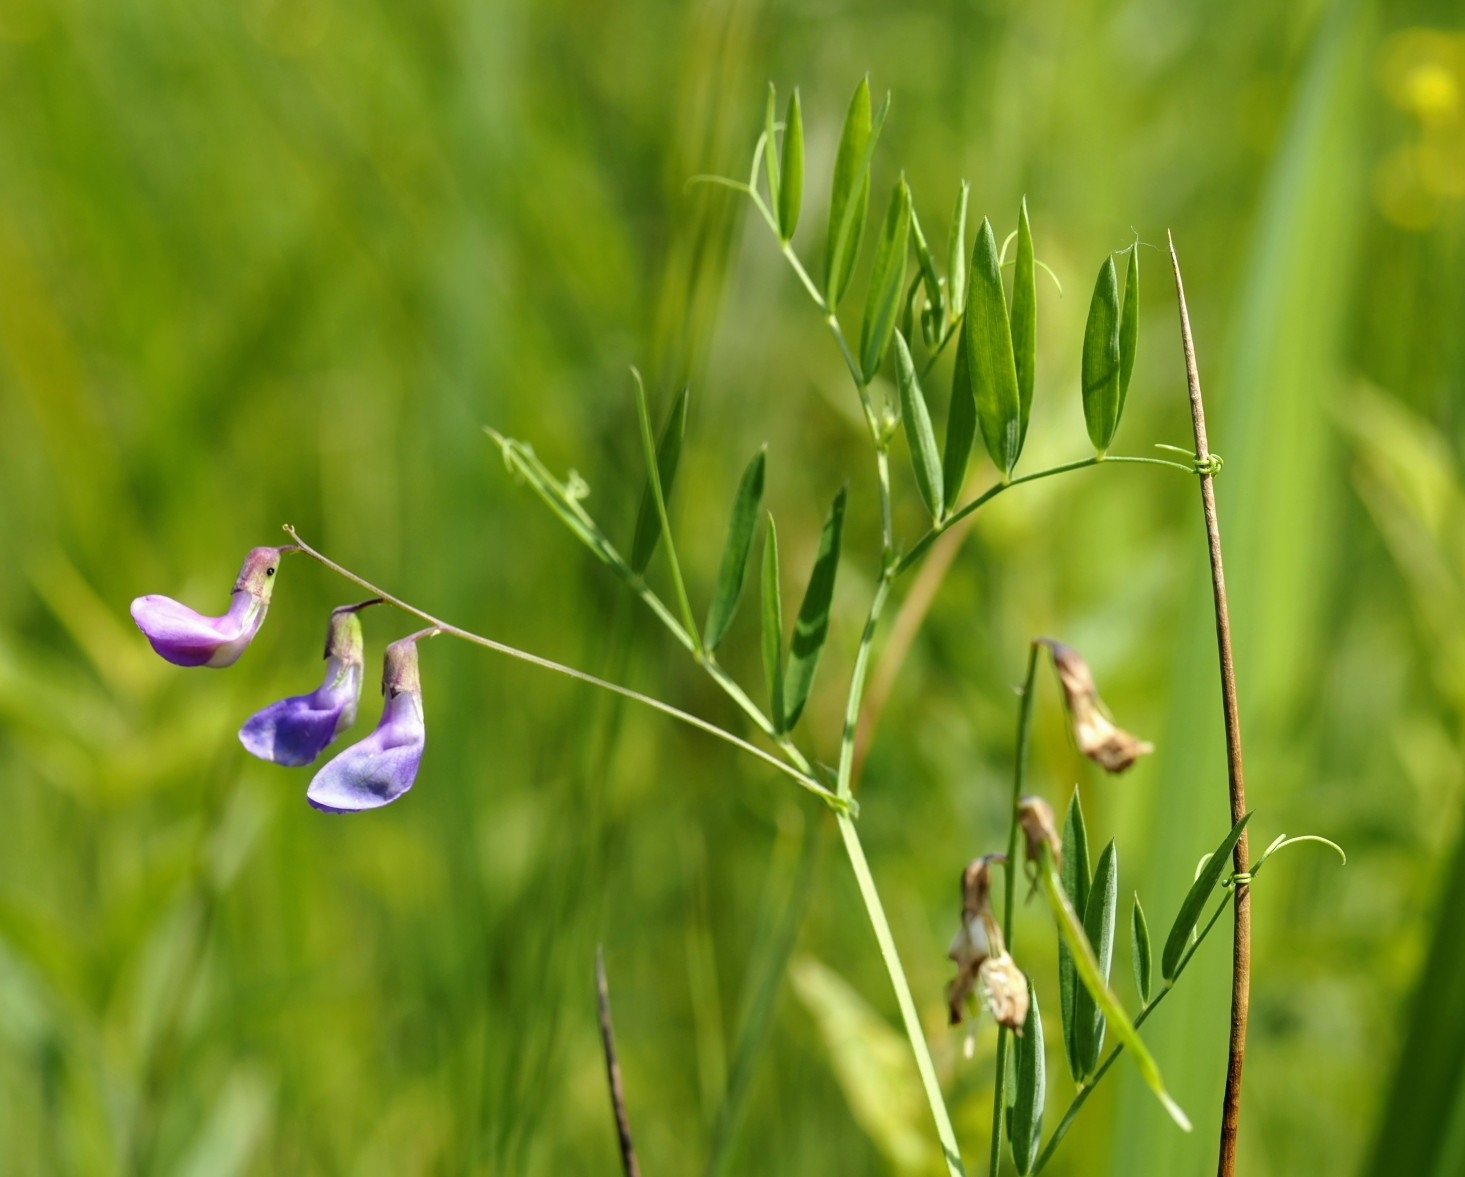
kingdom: Plantae
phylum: Tracheophyta
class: Magnoliopsida
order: Fabales
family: Fabaceae
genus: Lathyrus
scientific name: Lathyrus palustris
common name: Marsh pea
